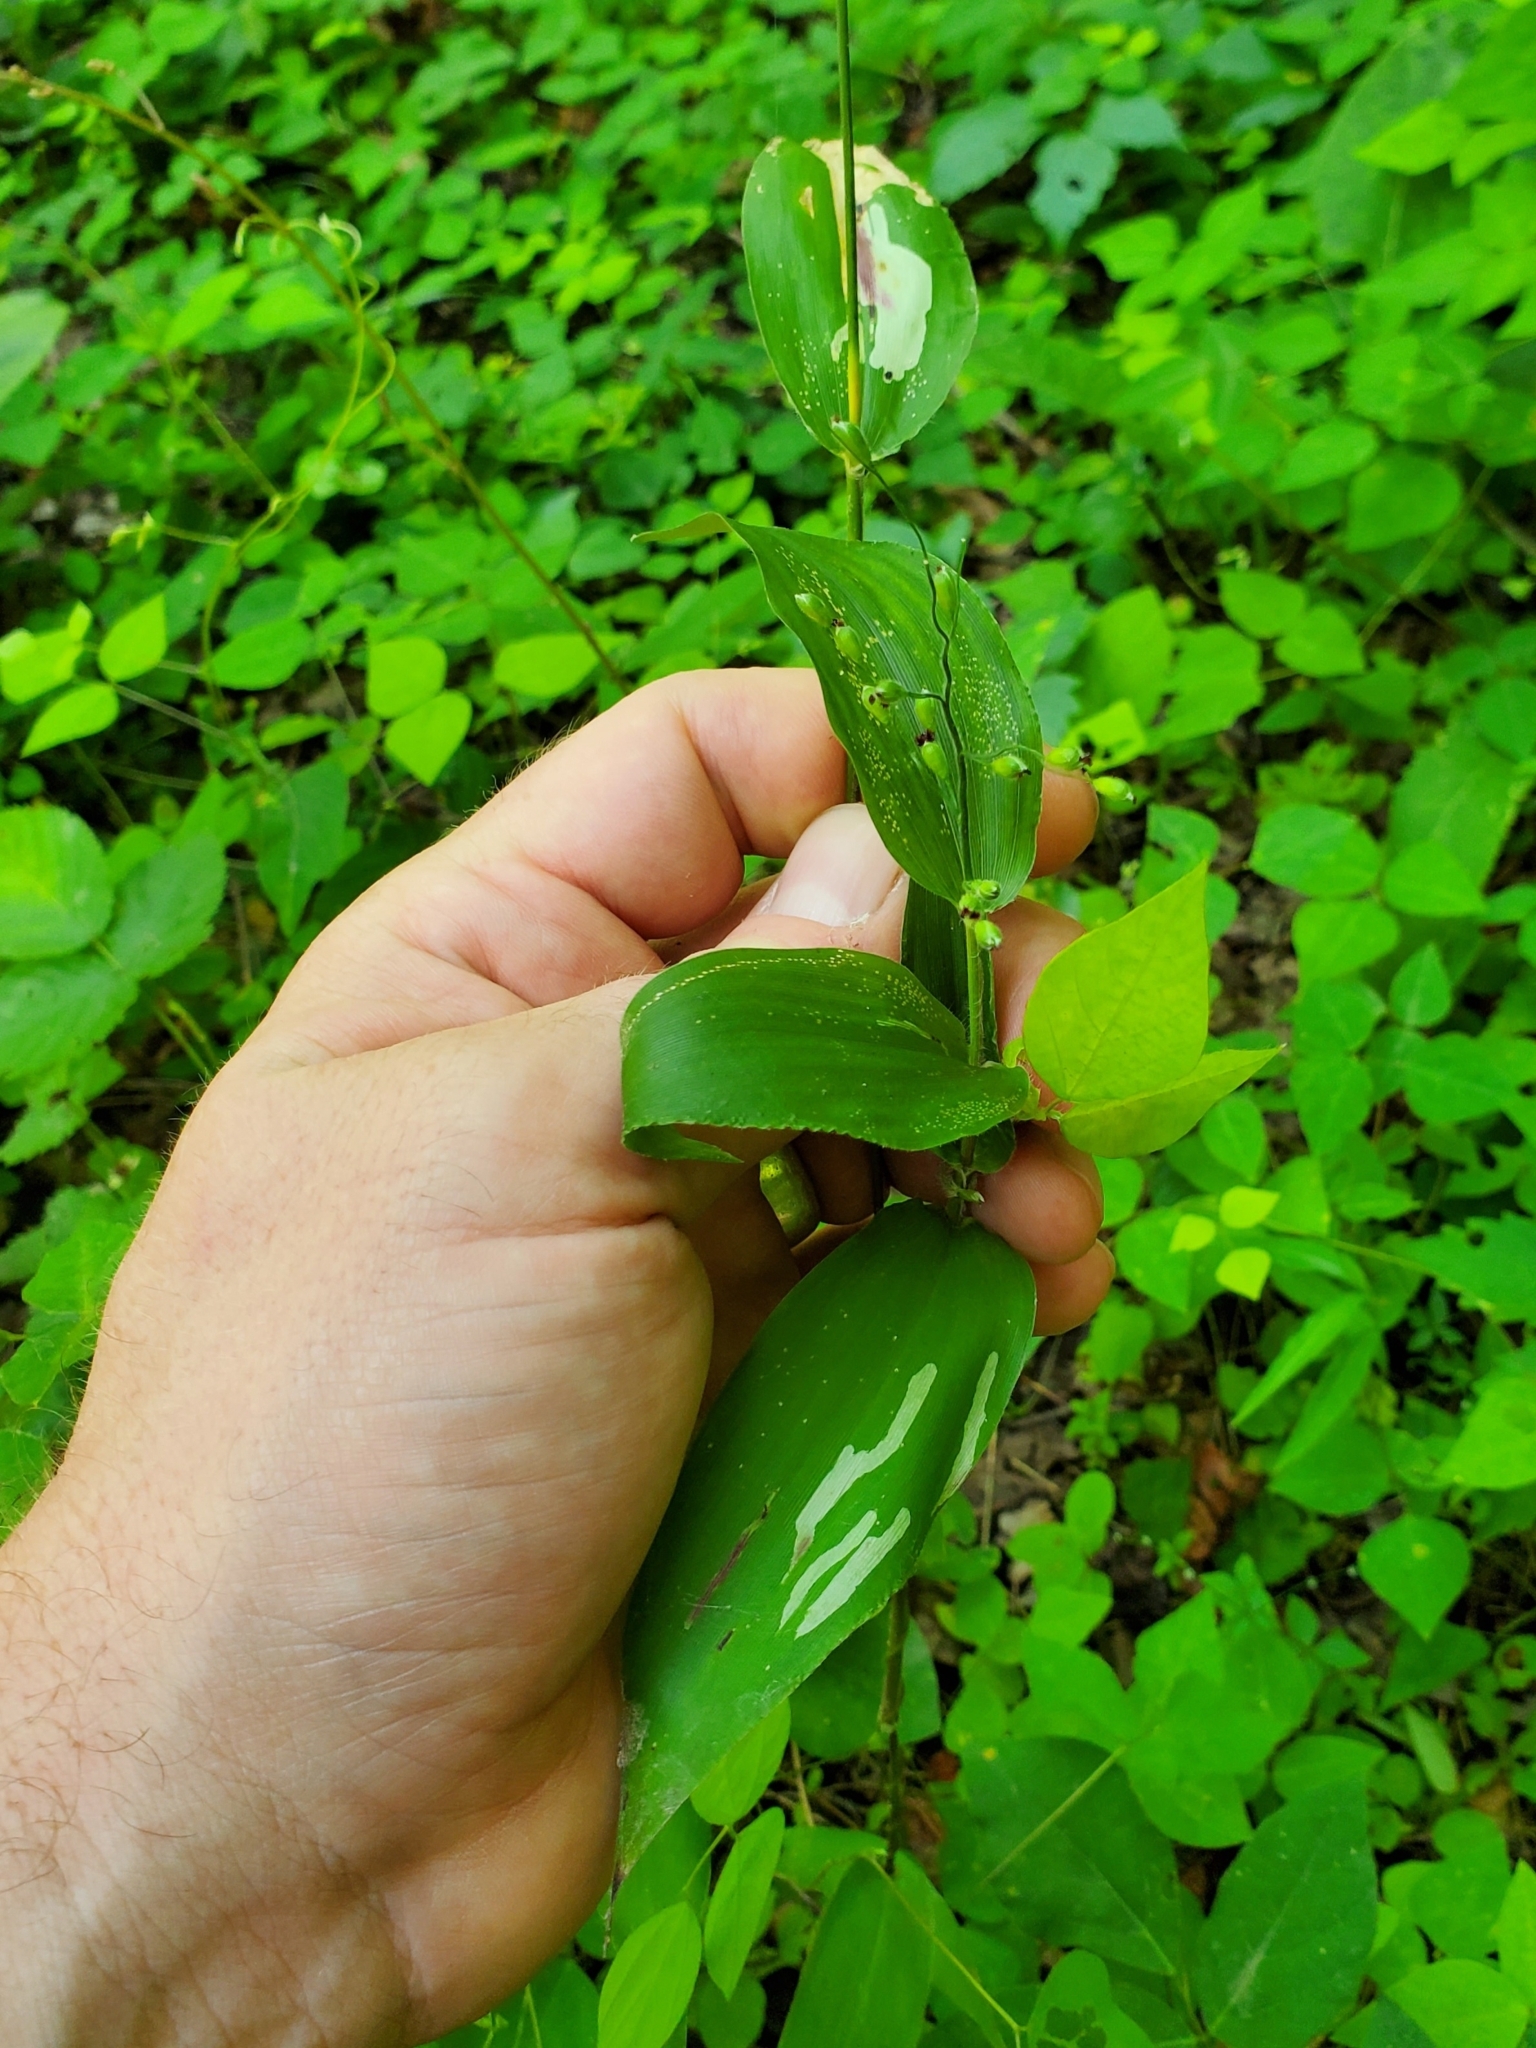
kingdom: Animalia
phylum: Arthropoda
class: Insecta
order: Diptera
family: Agromyzidae
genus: Cerodontha
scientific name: Cerodontha angulata
